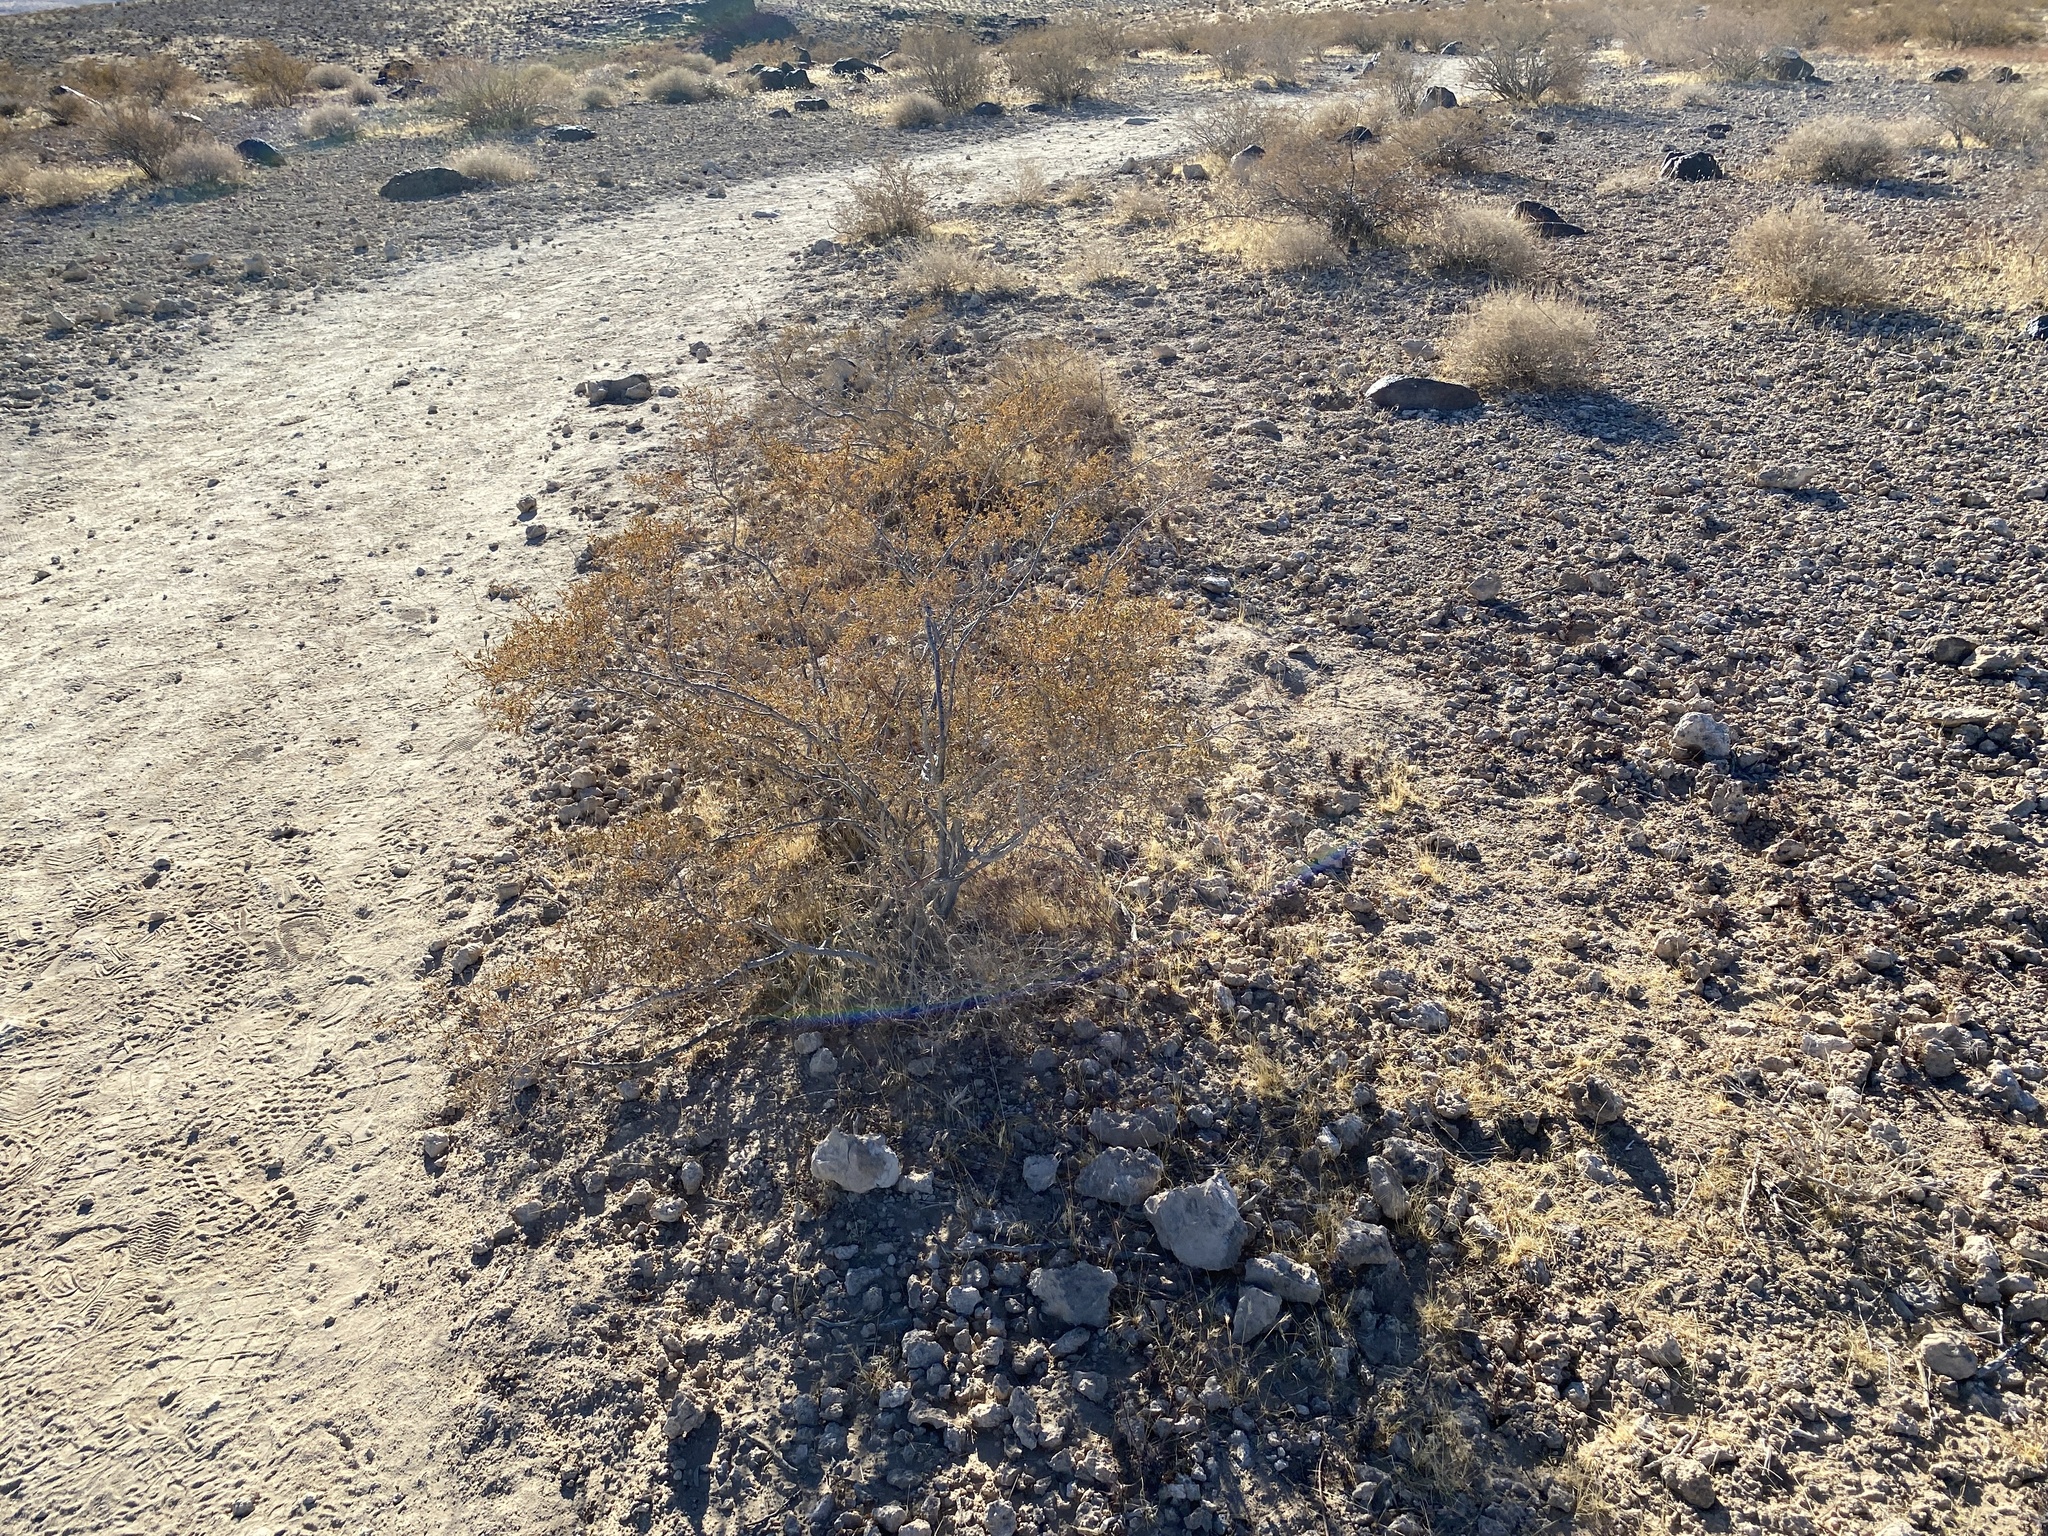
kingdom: Plantae
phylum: Tracheophyta
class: Magnoliopsida
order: Zygophyllales
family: Zygophyllaceae
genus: Larrea
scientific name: Larrea tridentata
